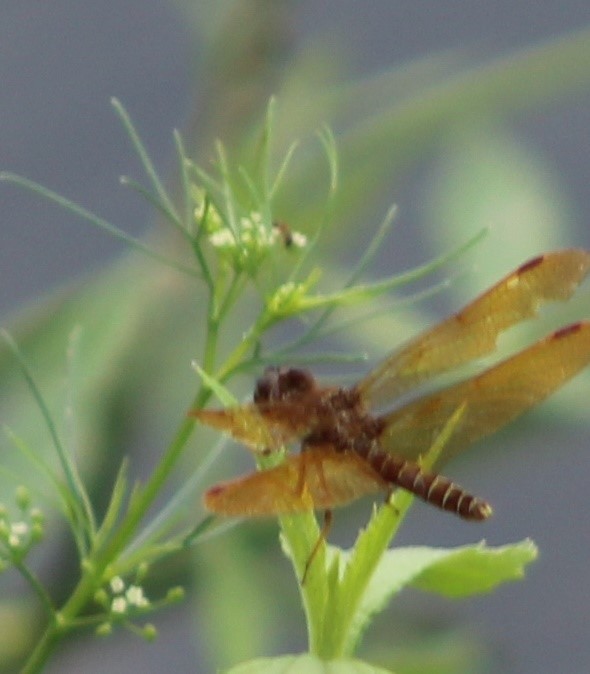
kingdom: Animalia
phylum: Arthropoda
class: Insecta
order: Odonata
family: Libellulidae
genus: Perithemis
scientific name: Perithemis tenera
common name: Eastern amberwing
